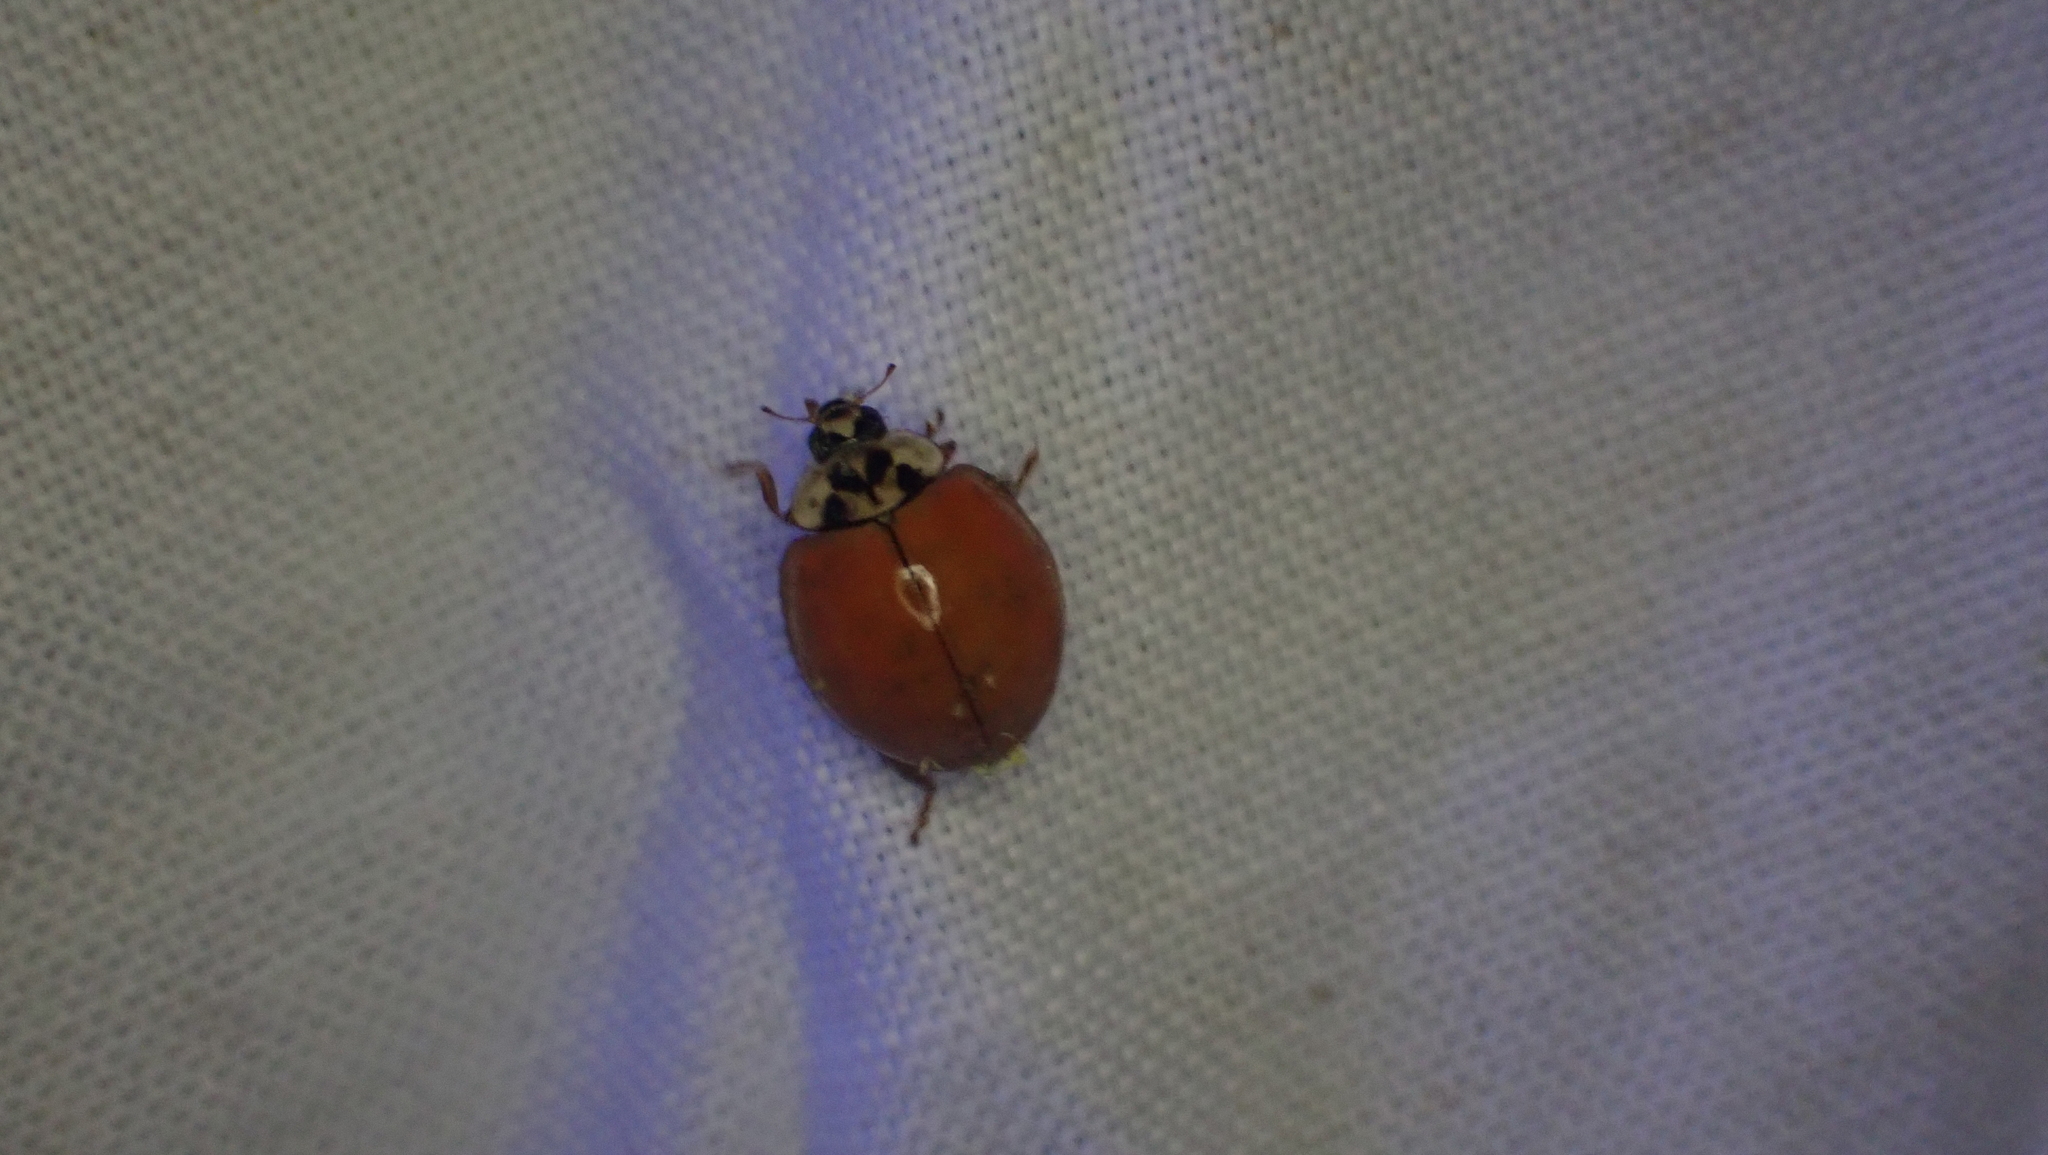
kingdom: Animalia
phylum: Arthropoda
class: Insecta
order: Coleoptera
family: Coccinellidae
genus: Harmonia
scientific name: Harmonia axyridis
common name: Harlequin ladybird
